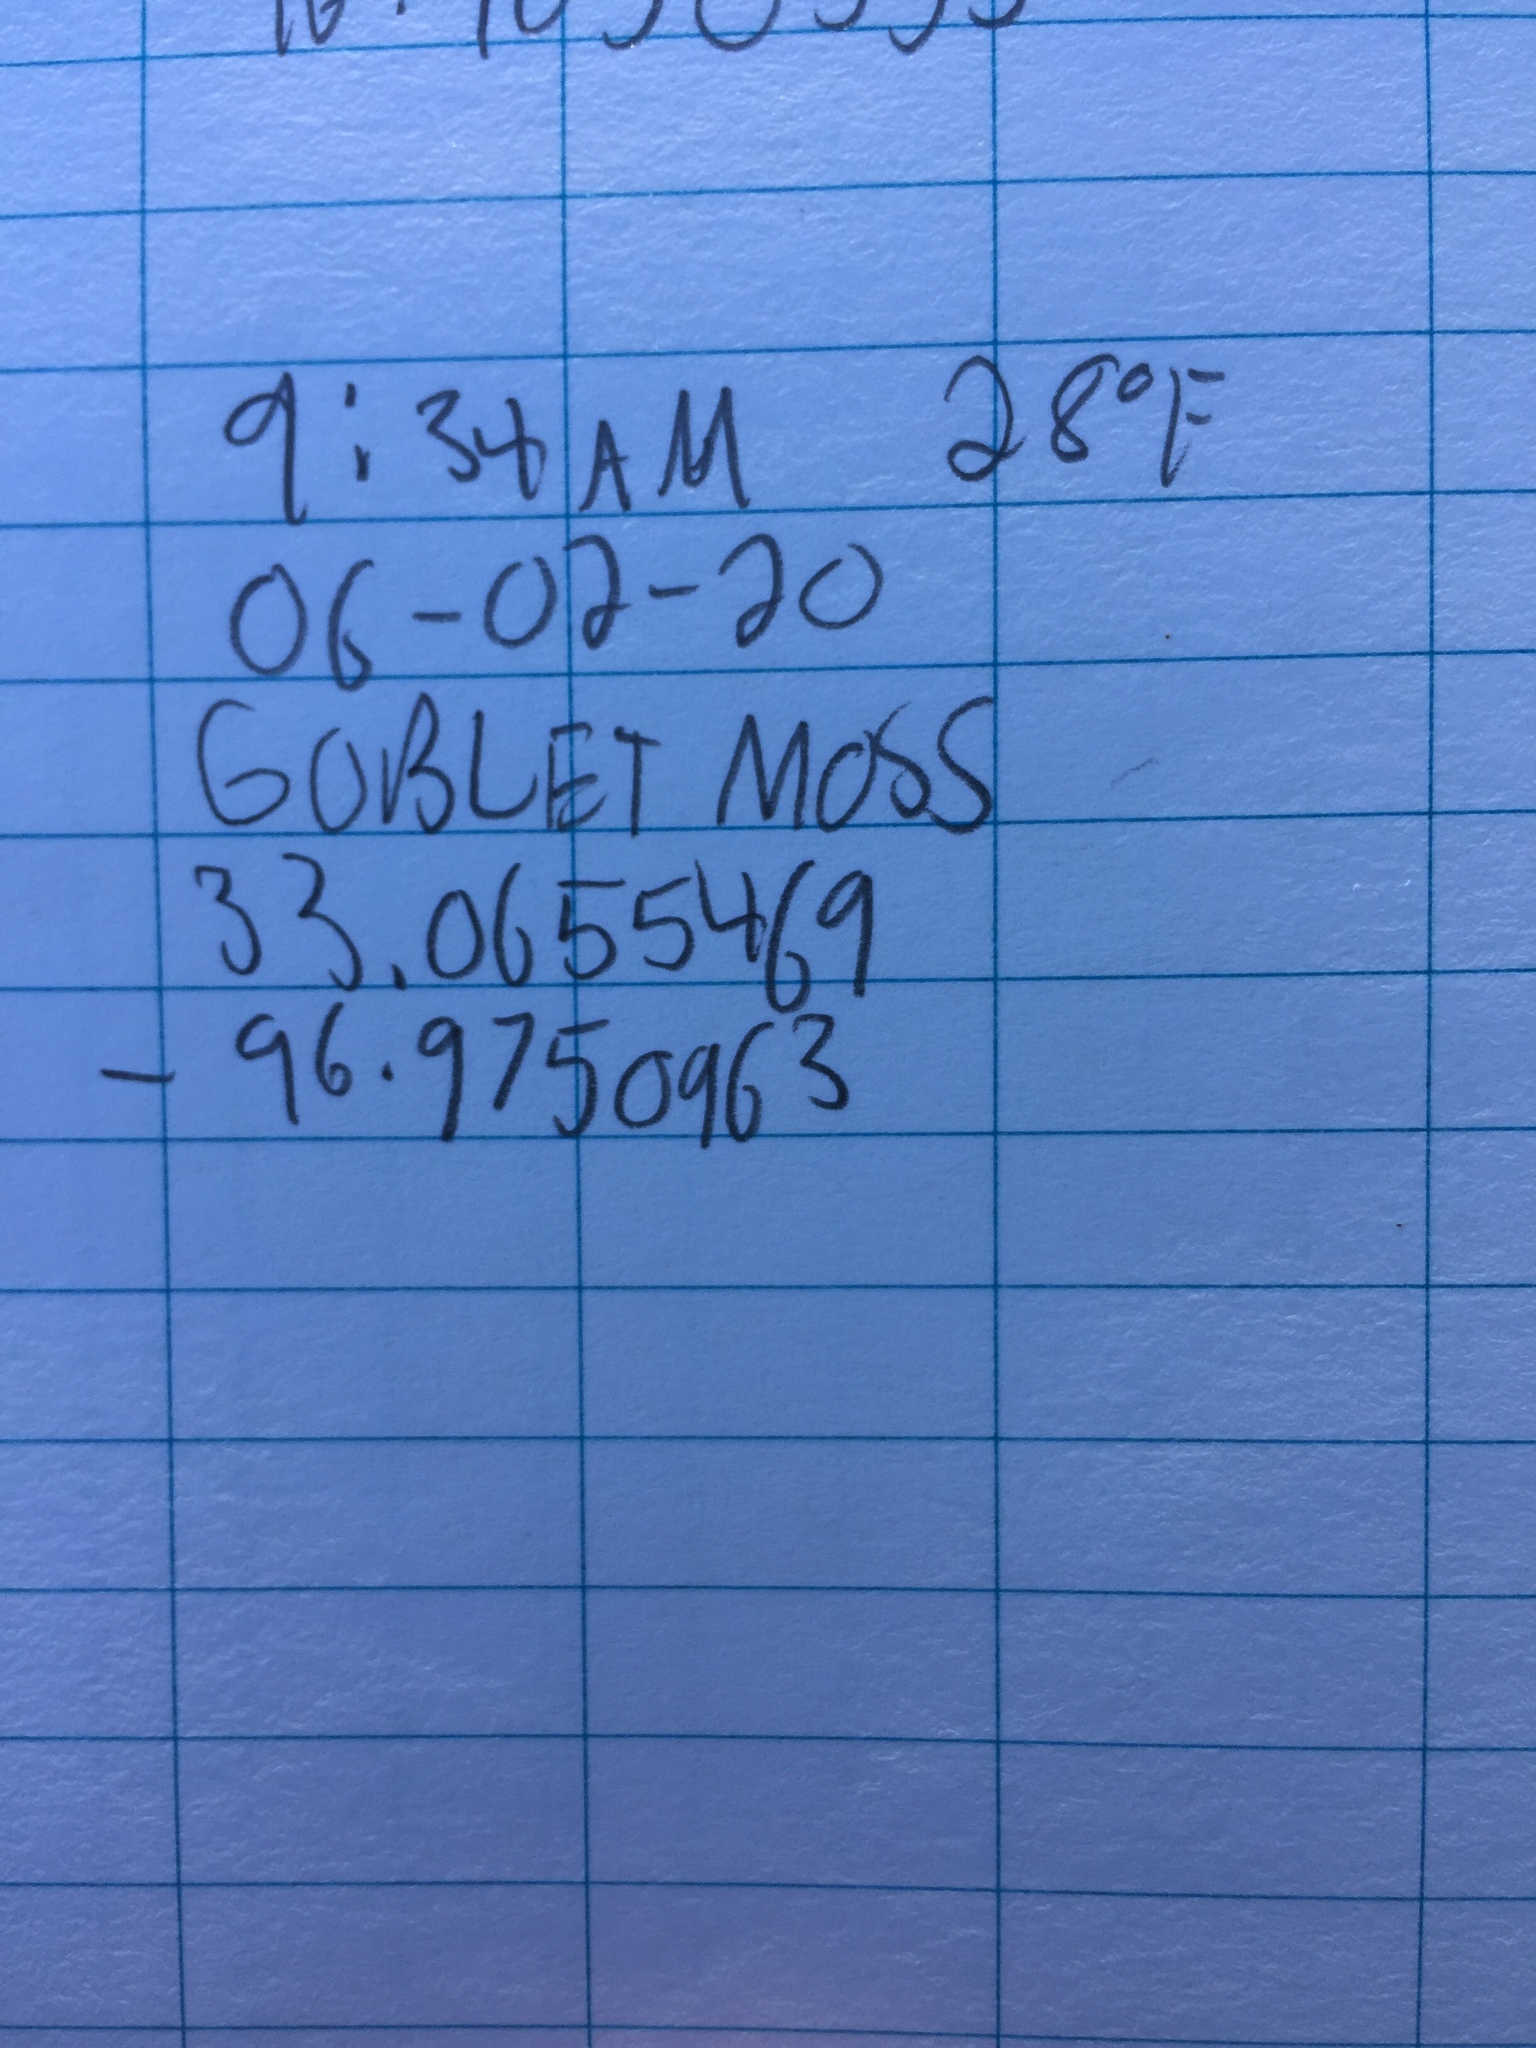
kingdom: Plantae
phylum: Bryophyta
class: Bryopsida
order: Funariales
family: Funariaceae
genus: Physcomitrium
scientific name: Physcomitrium pyriforme
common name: Common bladder-moss
